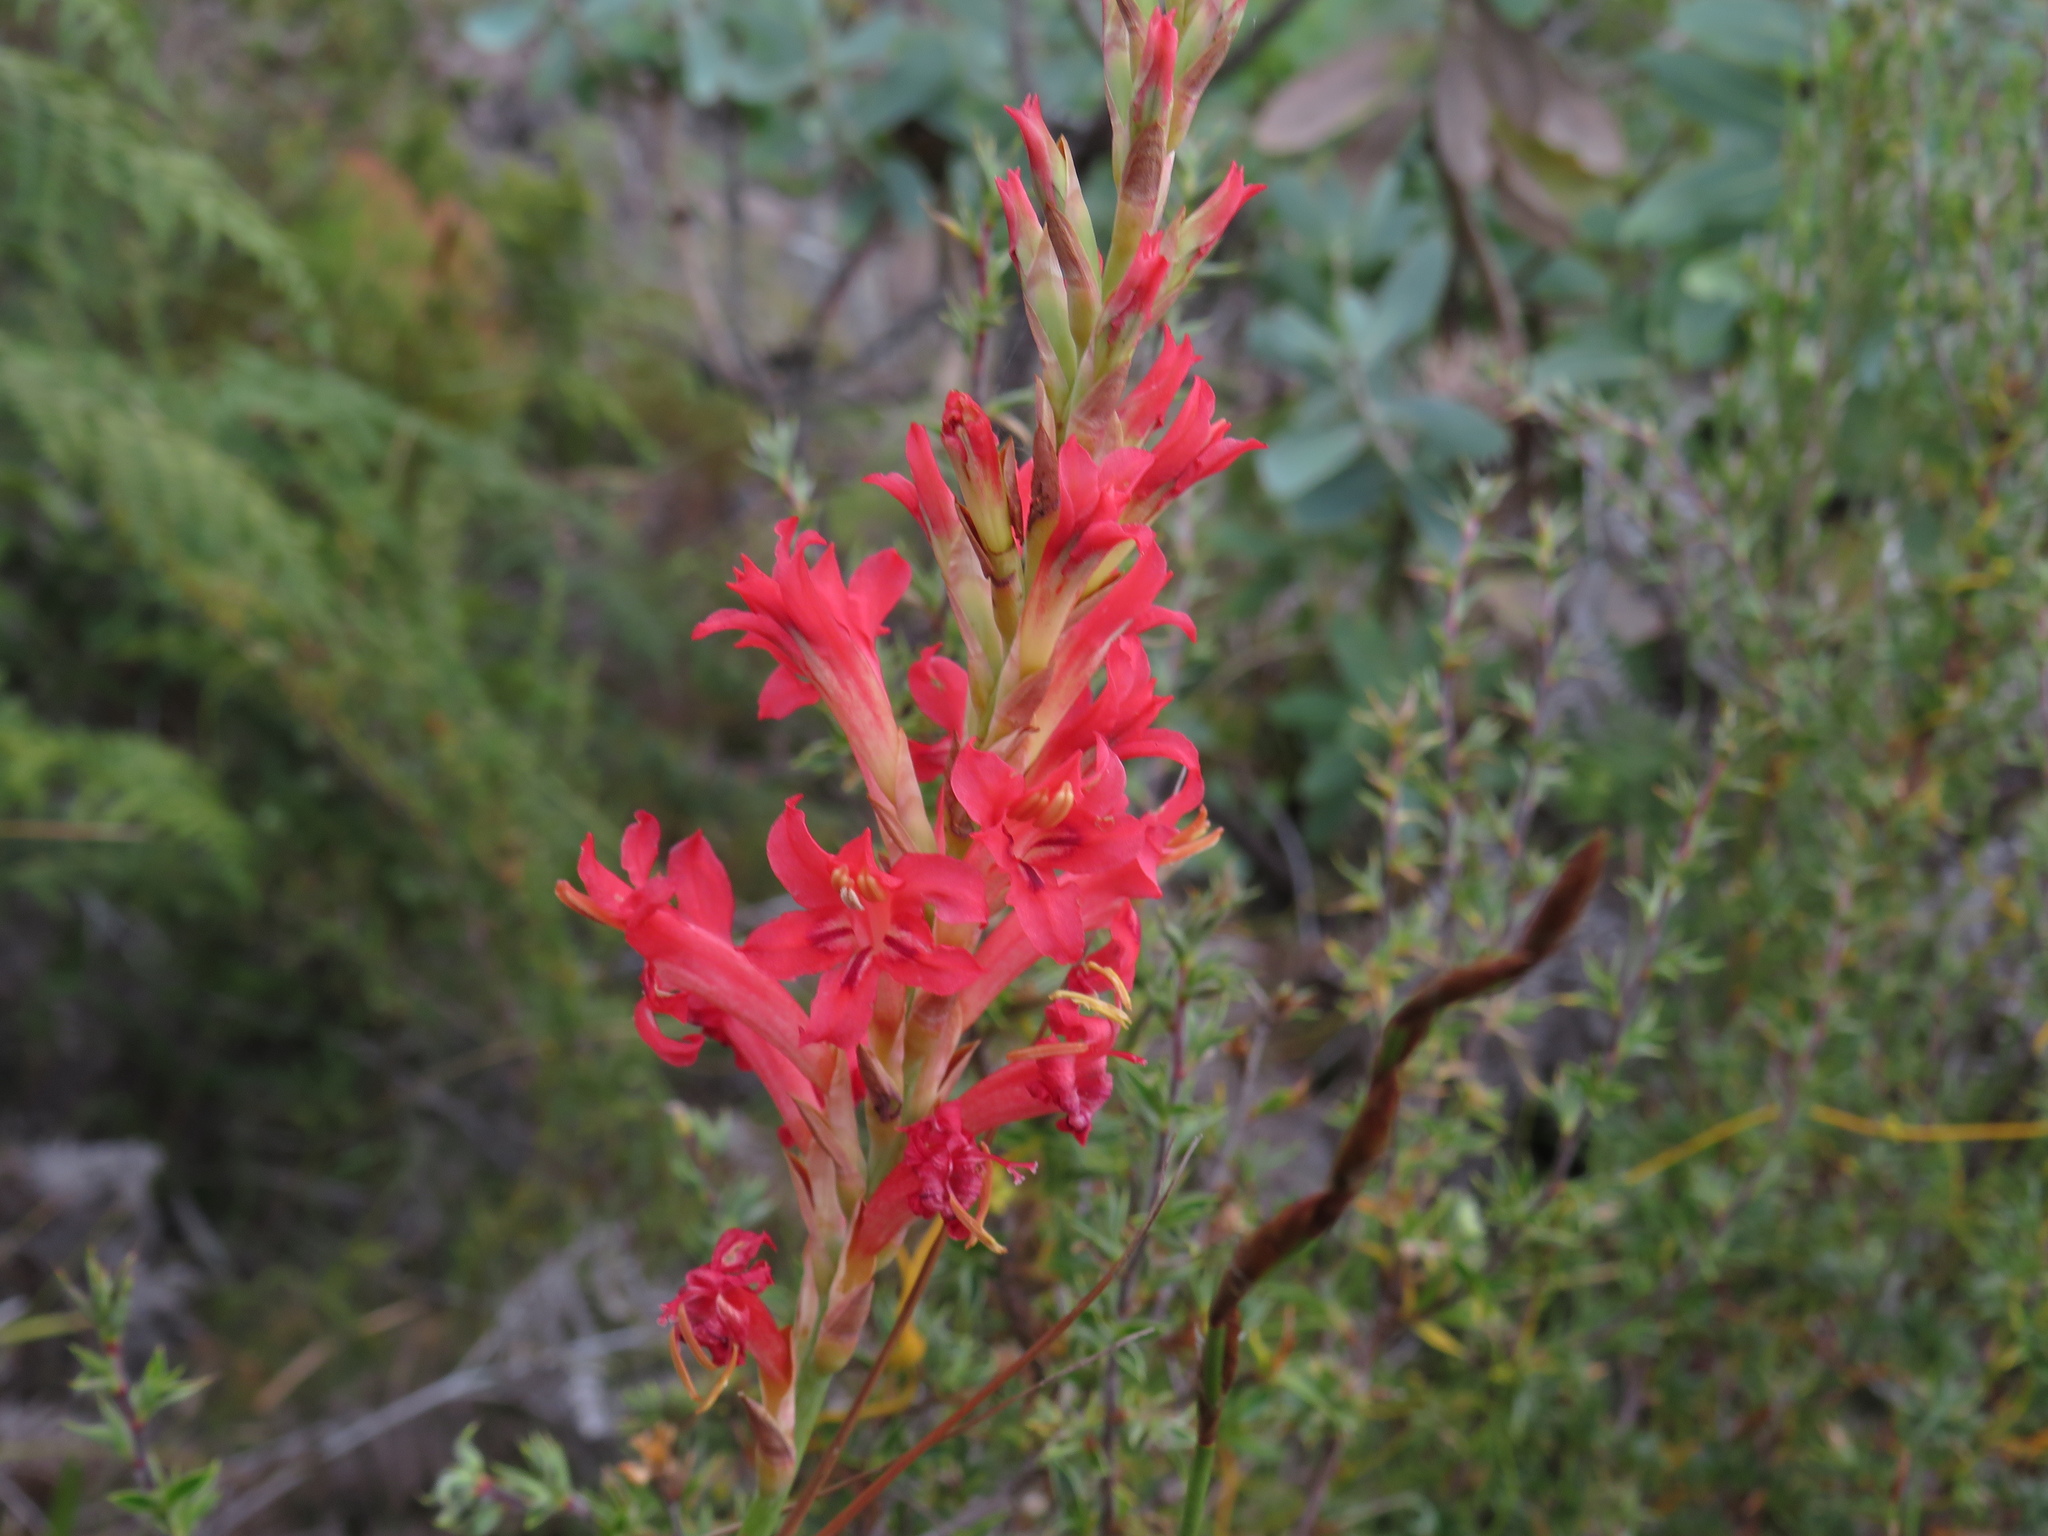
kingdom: Plantae
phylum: Tracheophyta
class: Liliopsida
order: Asparagales
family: Iridaceae
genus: Tritoniopsis
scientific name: Tritoniopsis triticea
